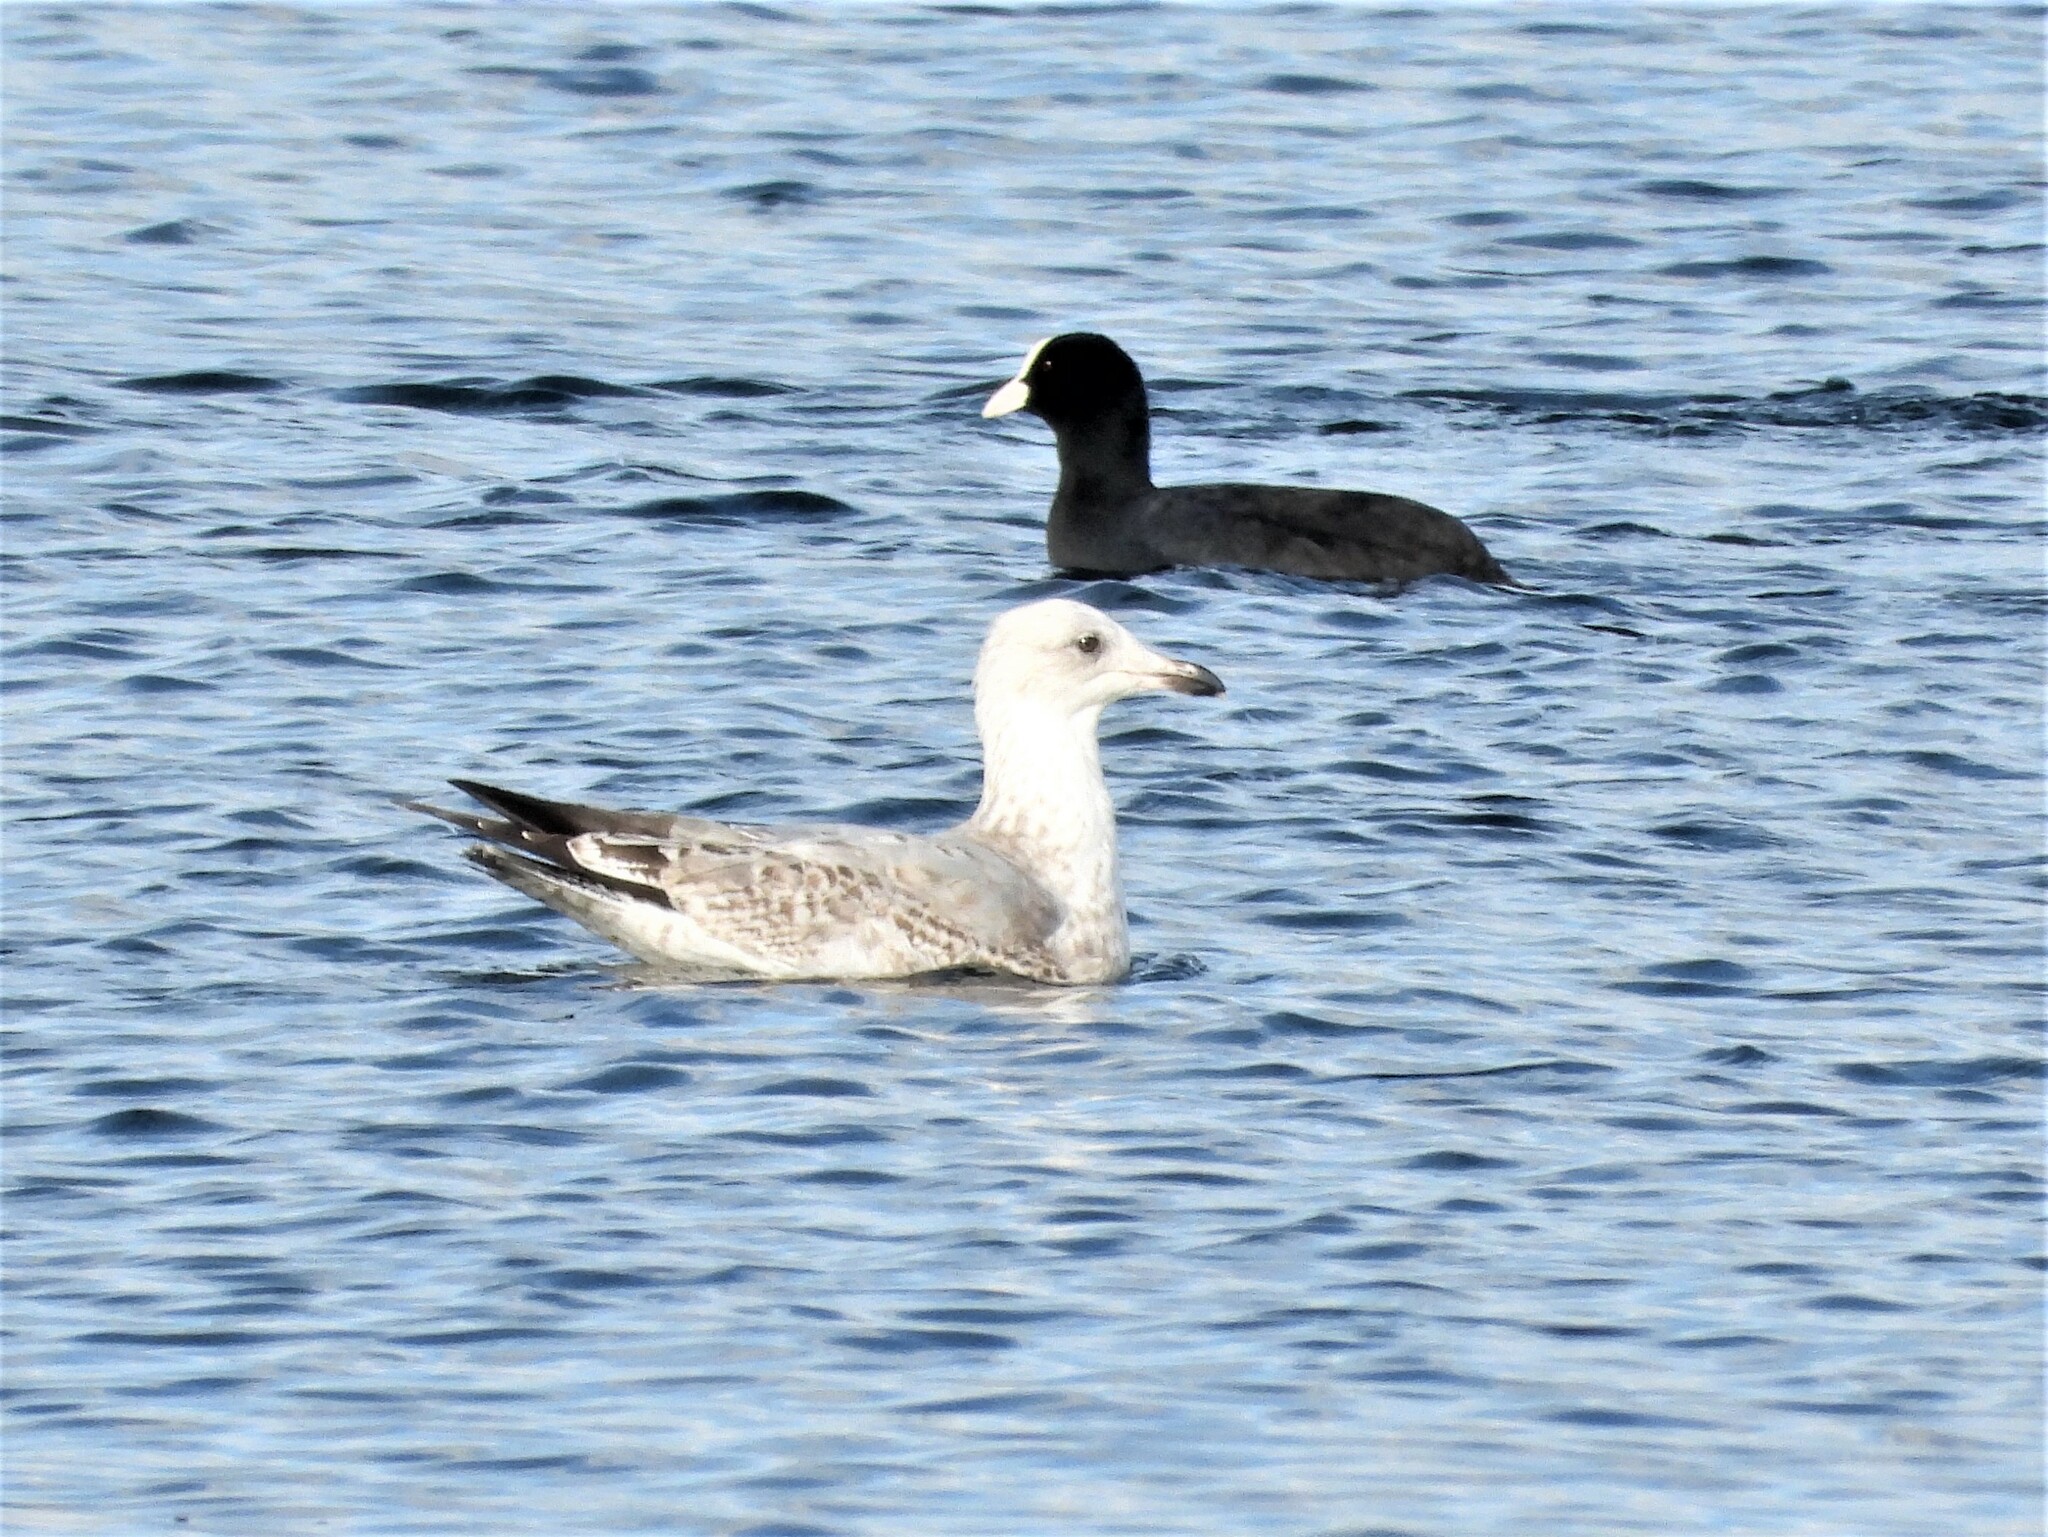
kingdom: Animalia
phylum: Chordata
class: Aves
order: Charadriiformes
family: Laridae
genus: Larus
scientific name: Larus argentatus
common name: Herring gull
